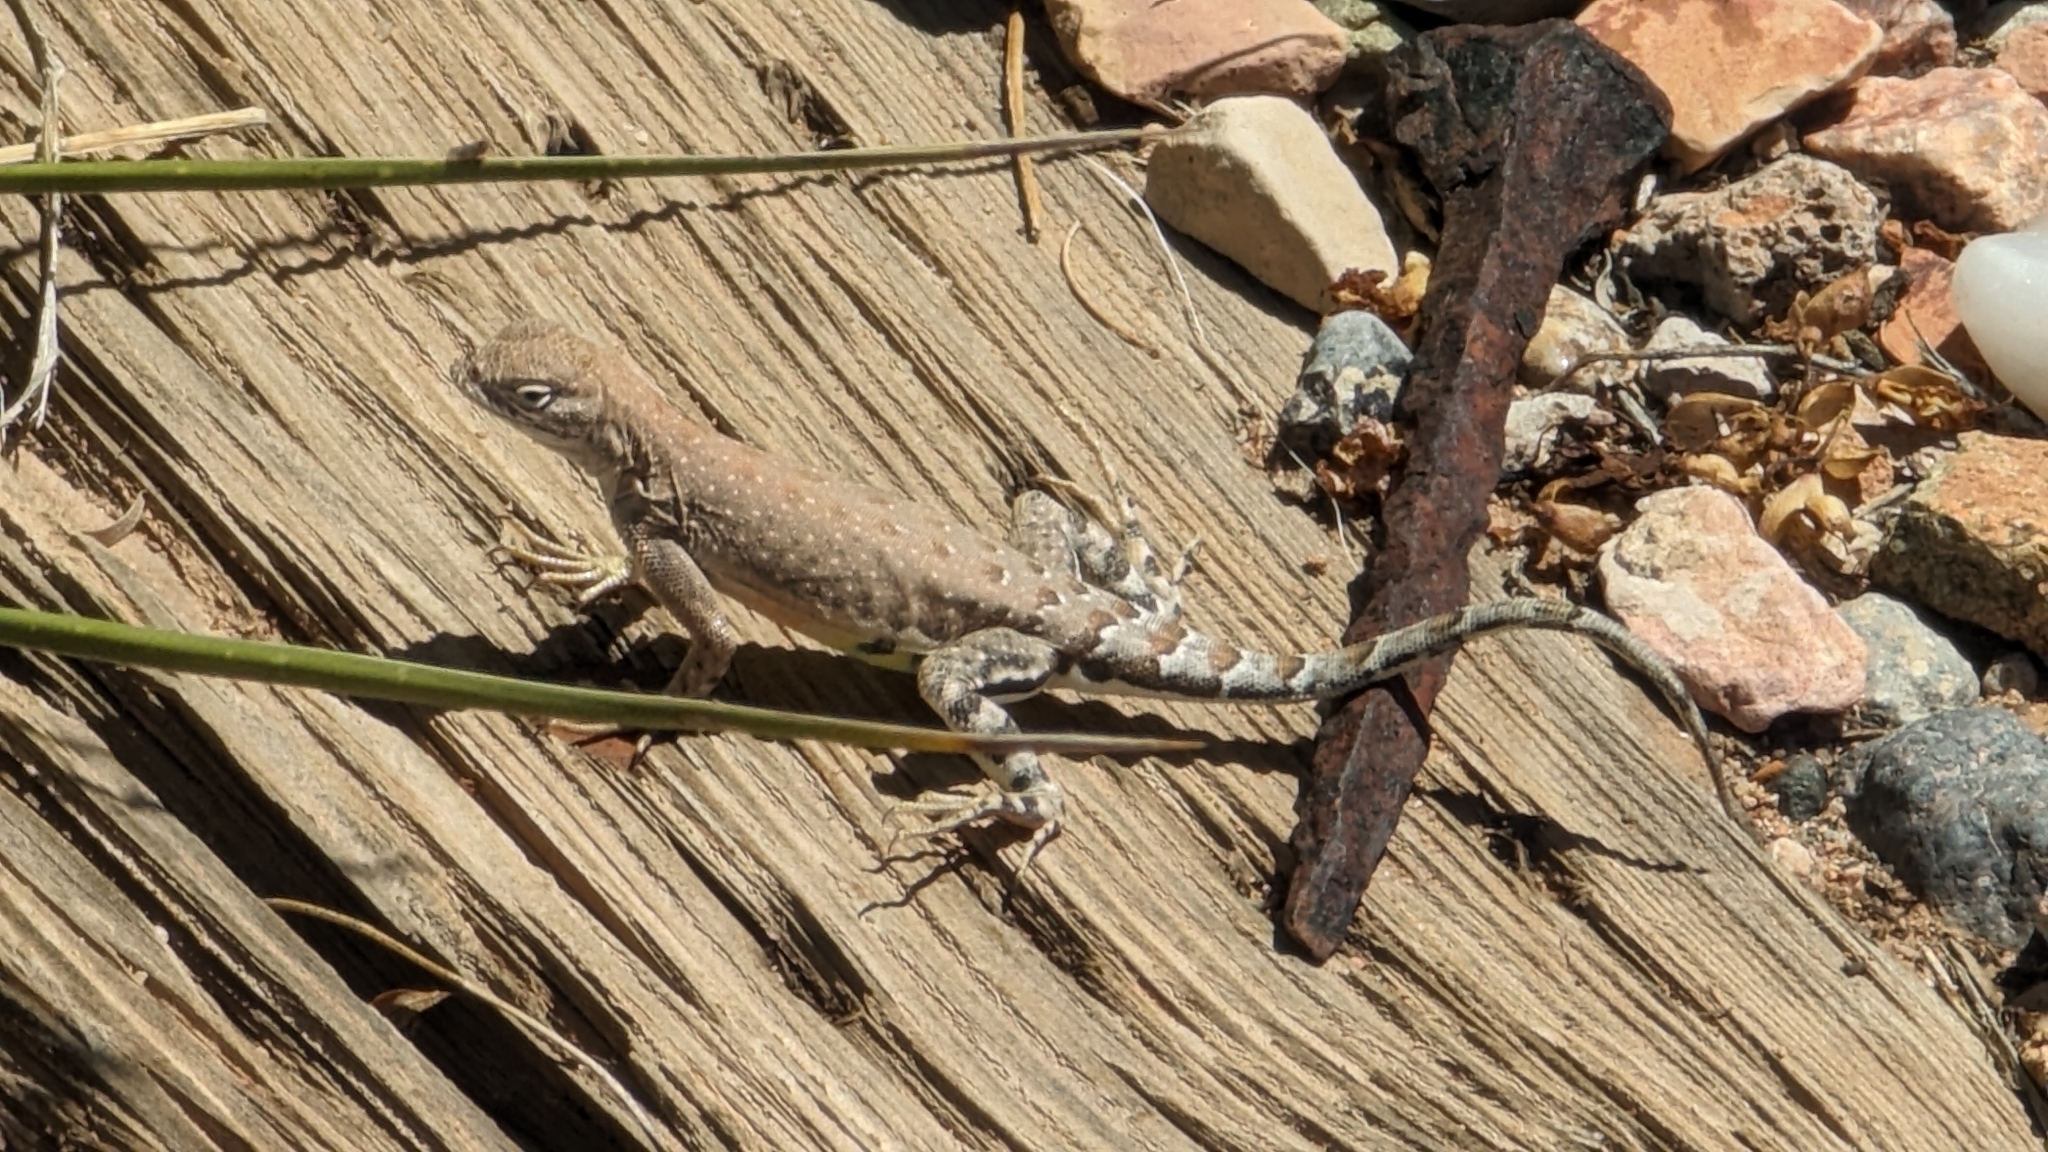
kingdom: Animalia
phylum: Chordata
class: Squamata
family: Phrynosomatidae
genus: Cophosaurus
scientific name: Cophosaurus texanus
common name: Greater earless lizard
